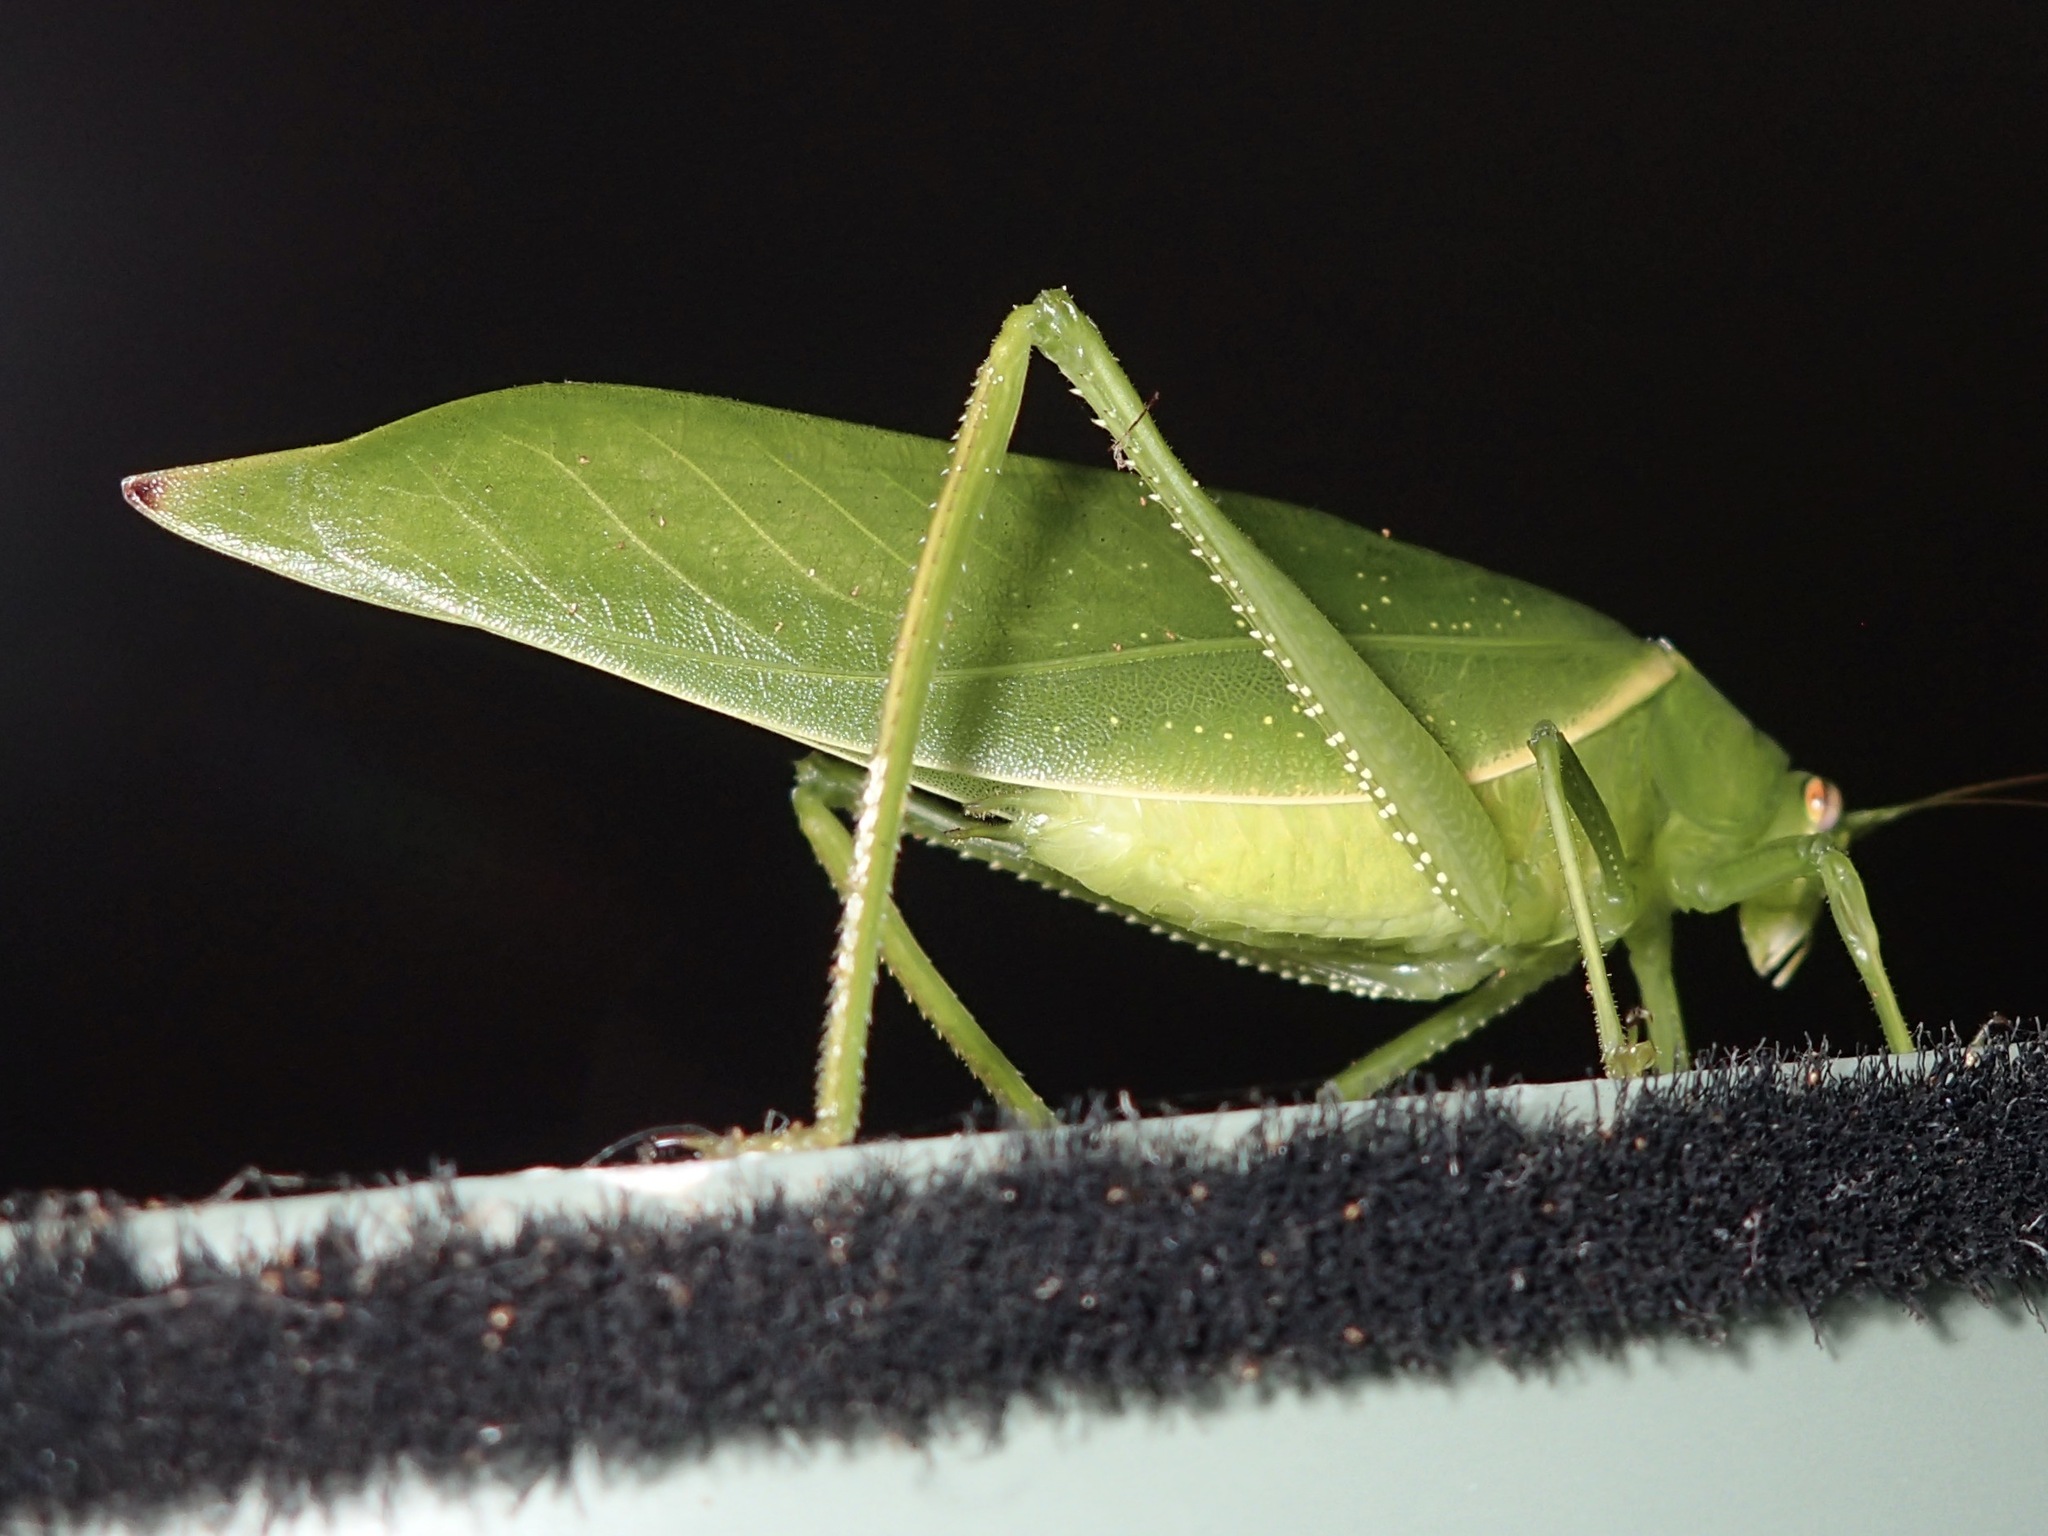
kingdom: Animalia
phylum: Arthropoda
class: Insecta
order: Orthoptera
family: Tettigoniidae
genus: Paracaedicia
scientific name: Paracaedicia serrata
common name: Serrated bush katydid
